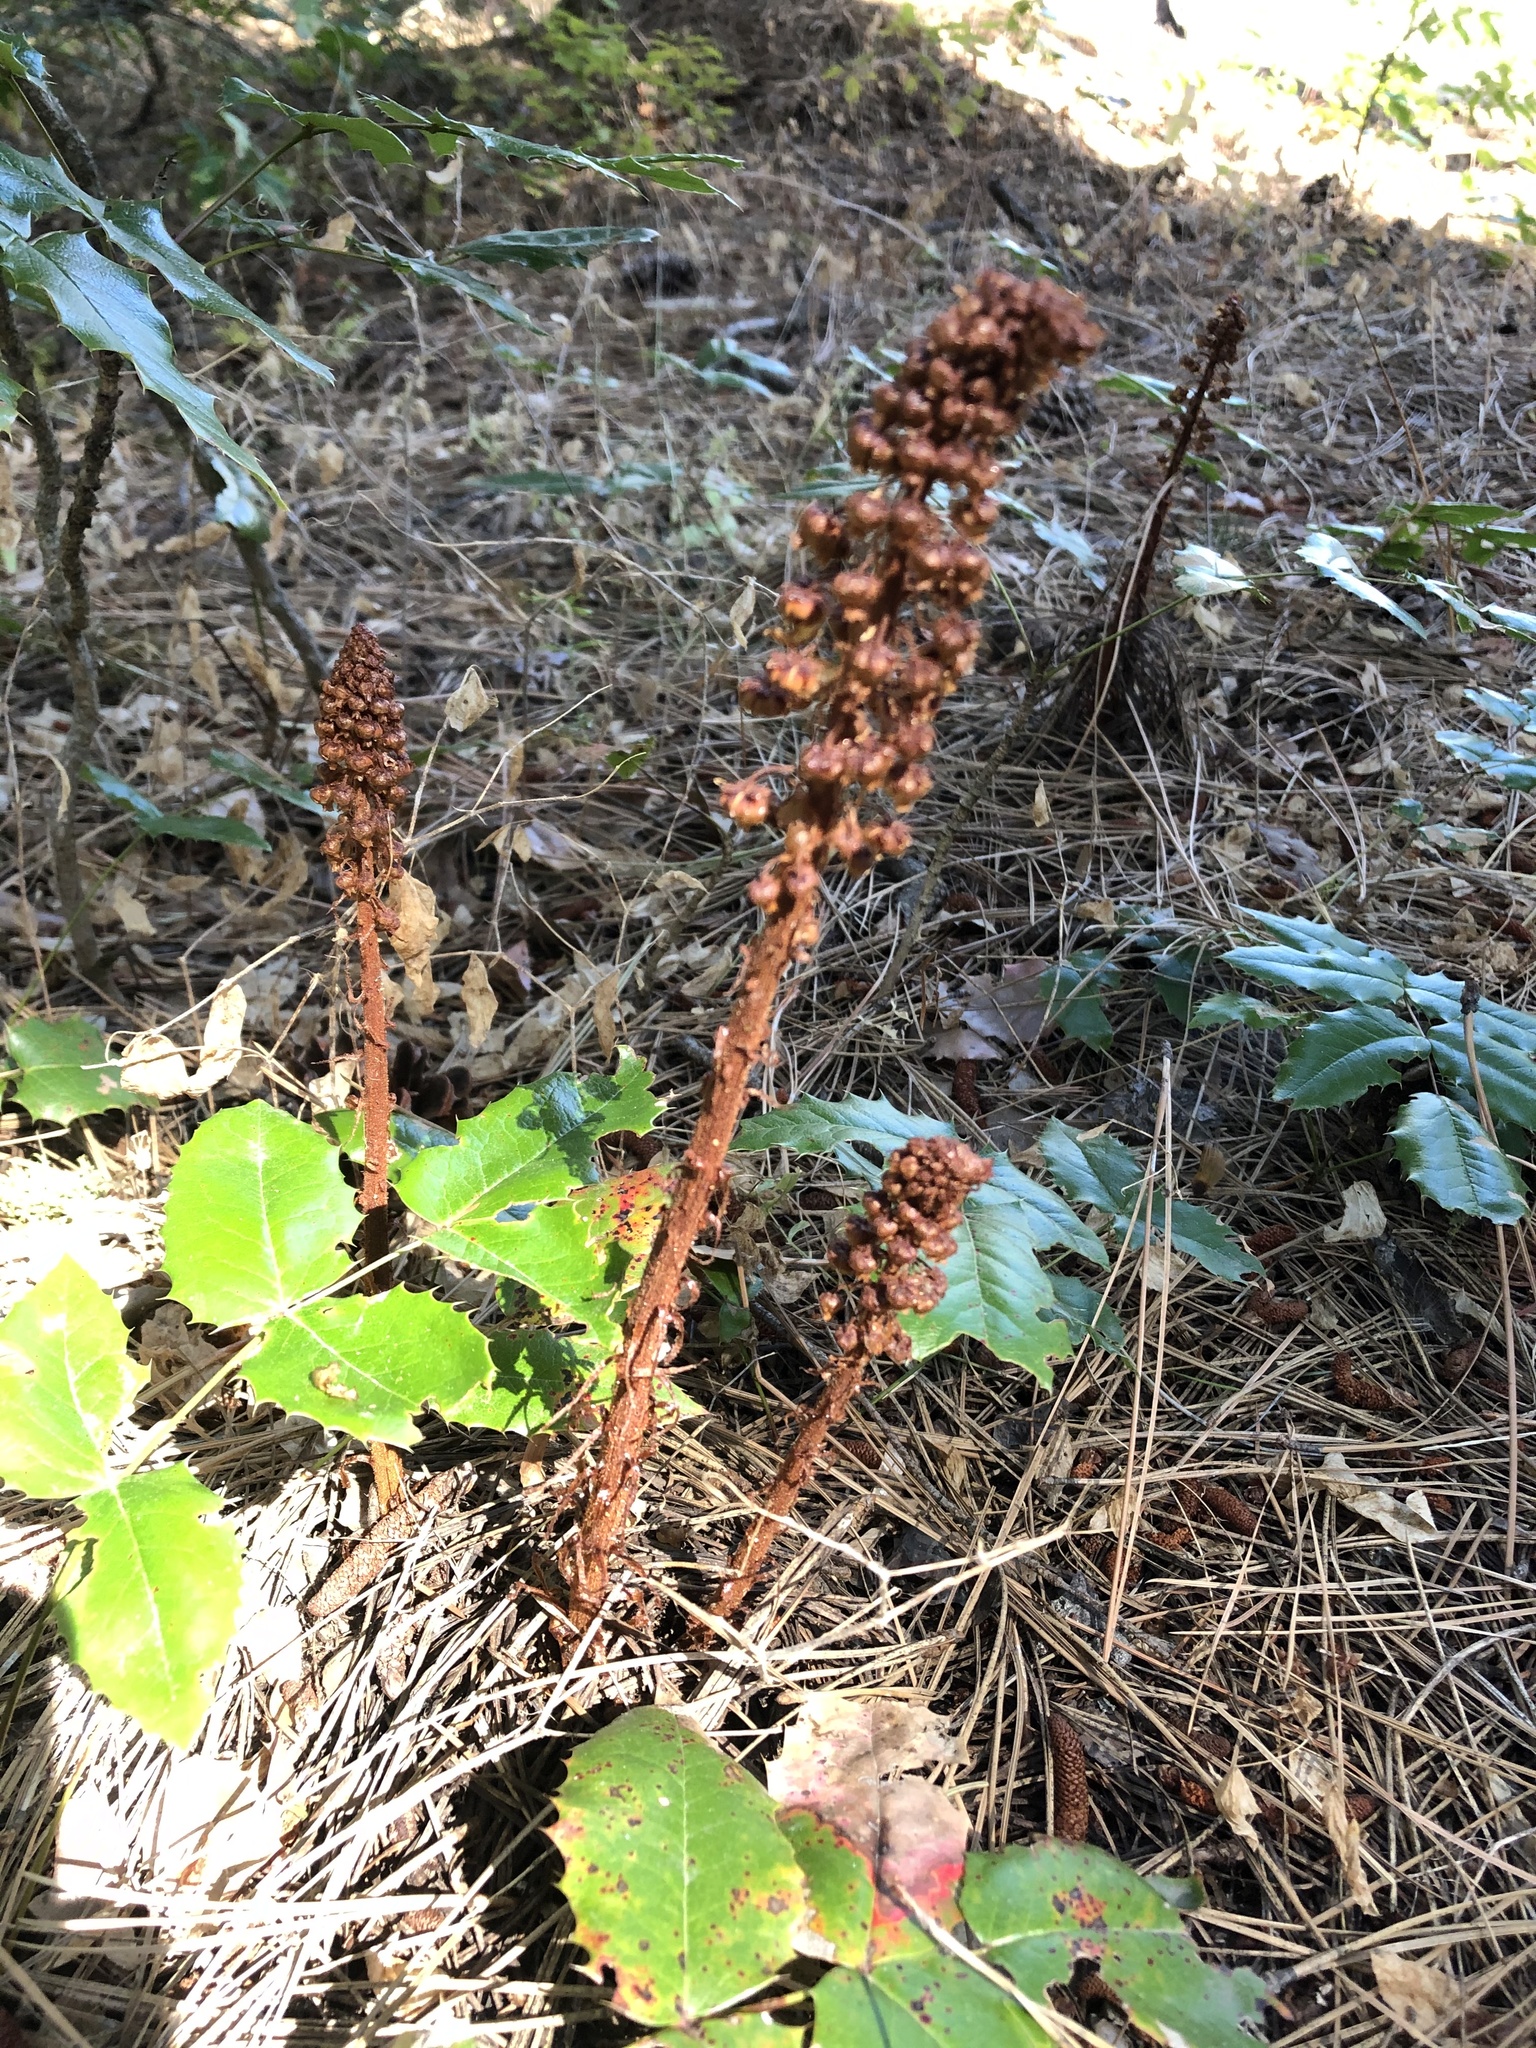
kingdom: Plantae
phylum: Tracheophyta
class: Magnoliopsida
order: Ericales
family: Ericaceae
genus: Pterospora
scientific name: Pterospora andromedea
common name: Giant bird's-nest
